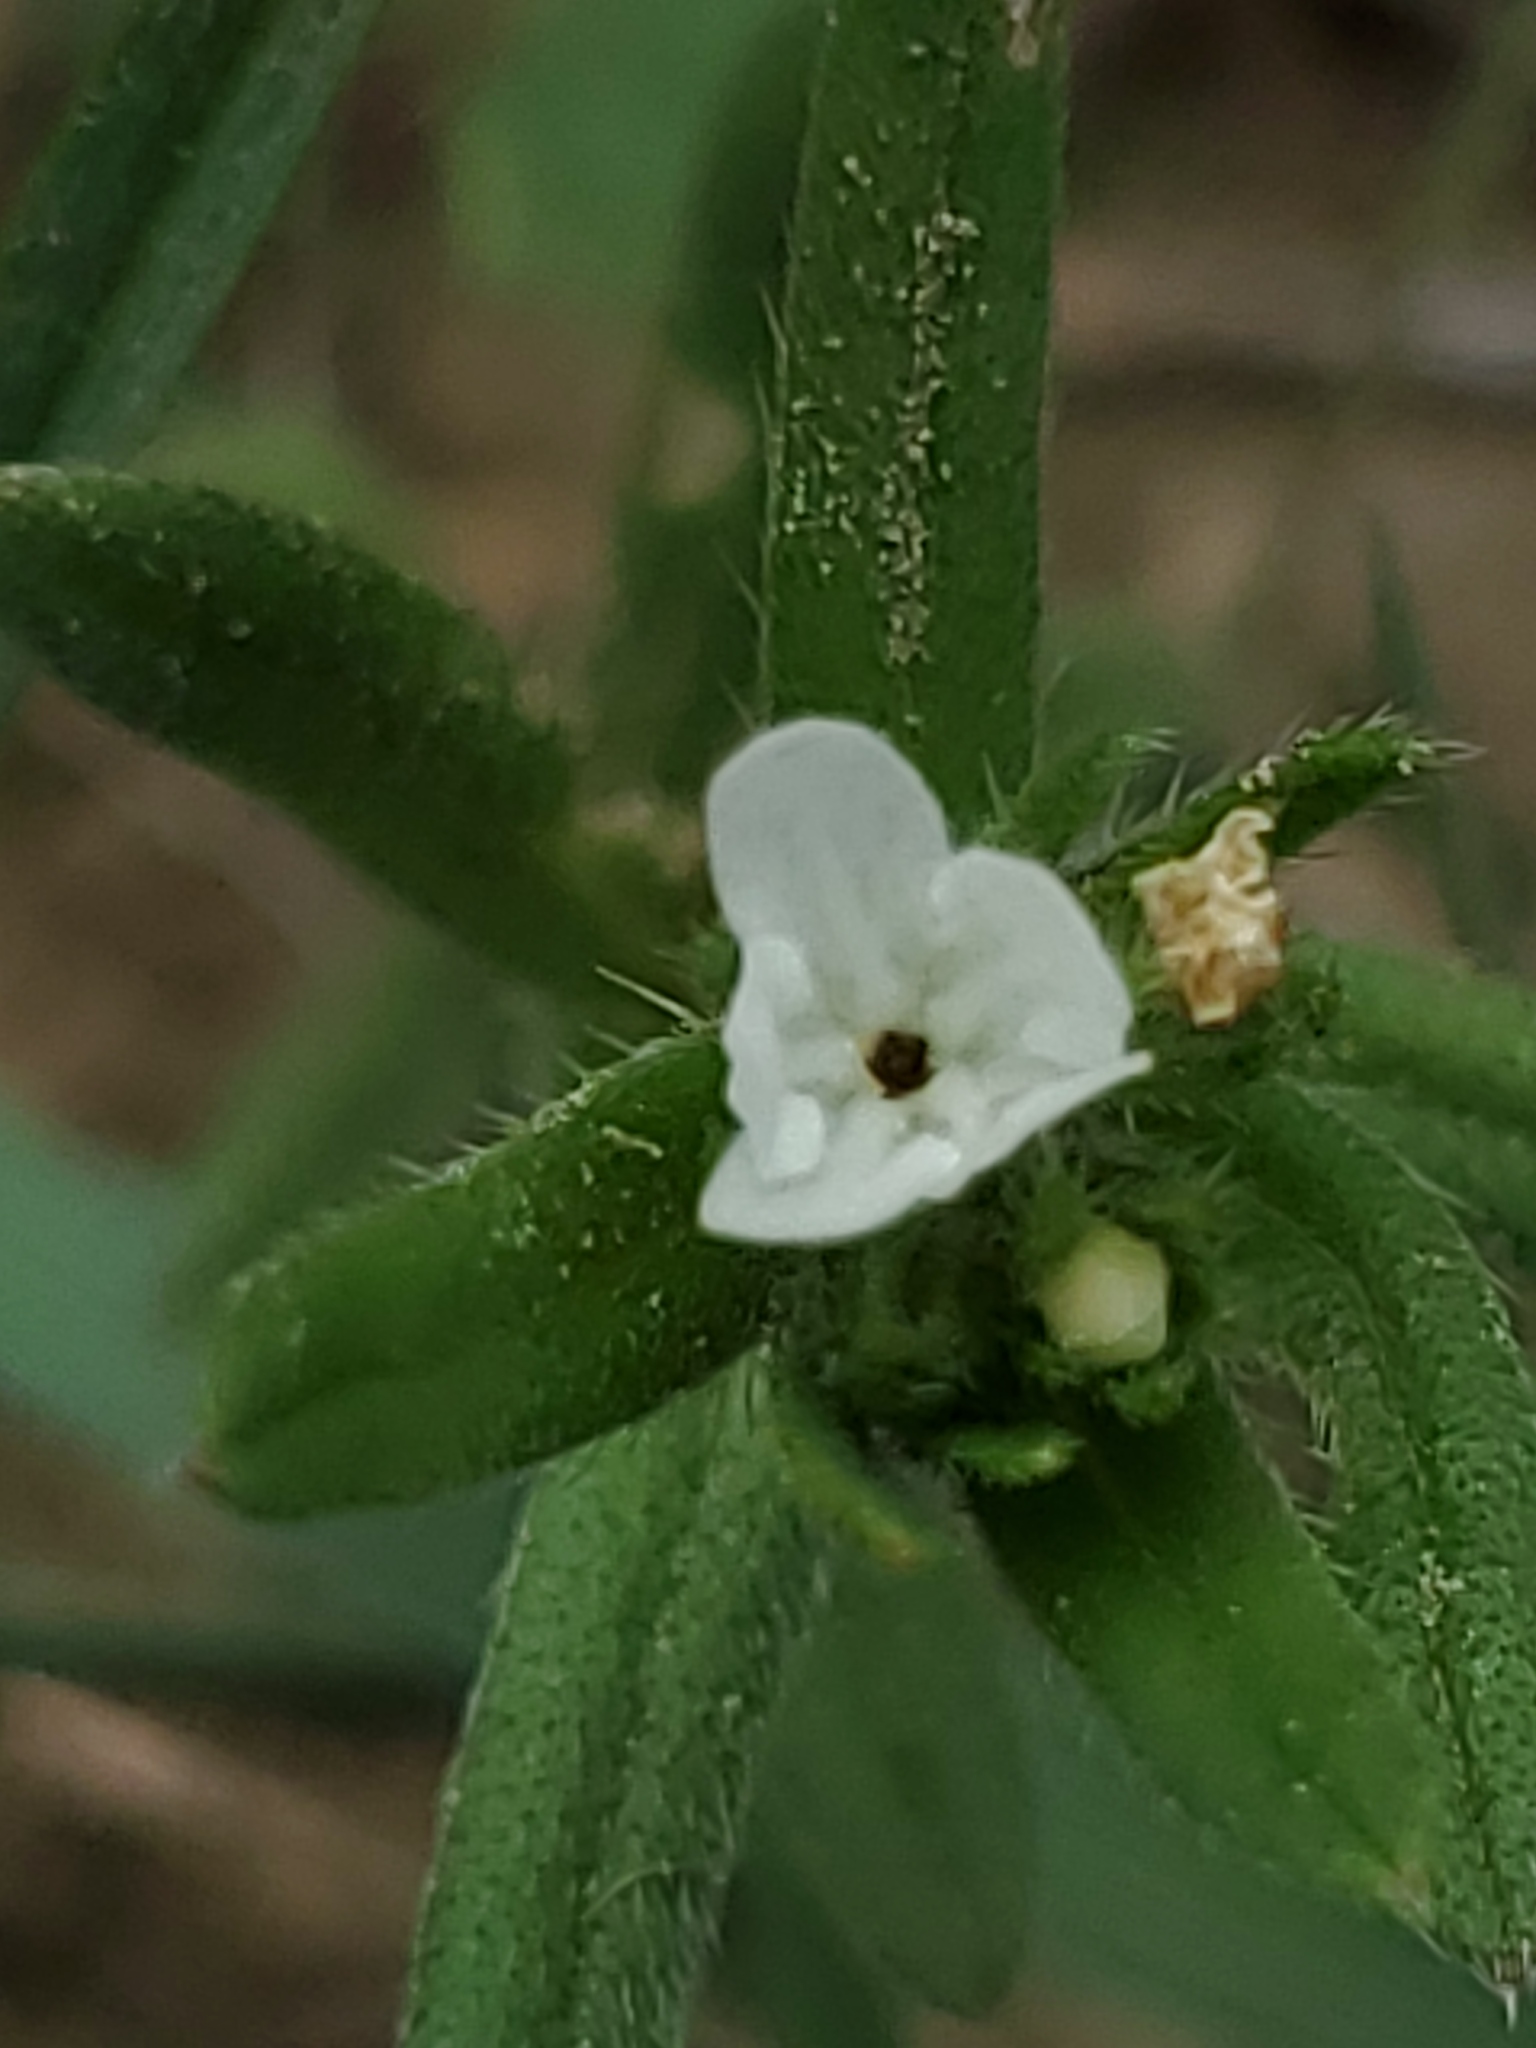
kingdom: Plantae
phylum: Tracheophyta
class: Magnoliopsida
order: Boraginales
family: Boraginaceae
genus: Buglossoides
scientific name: Buglossoides arvensis
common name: Corn gromwell
